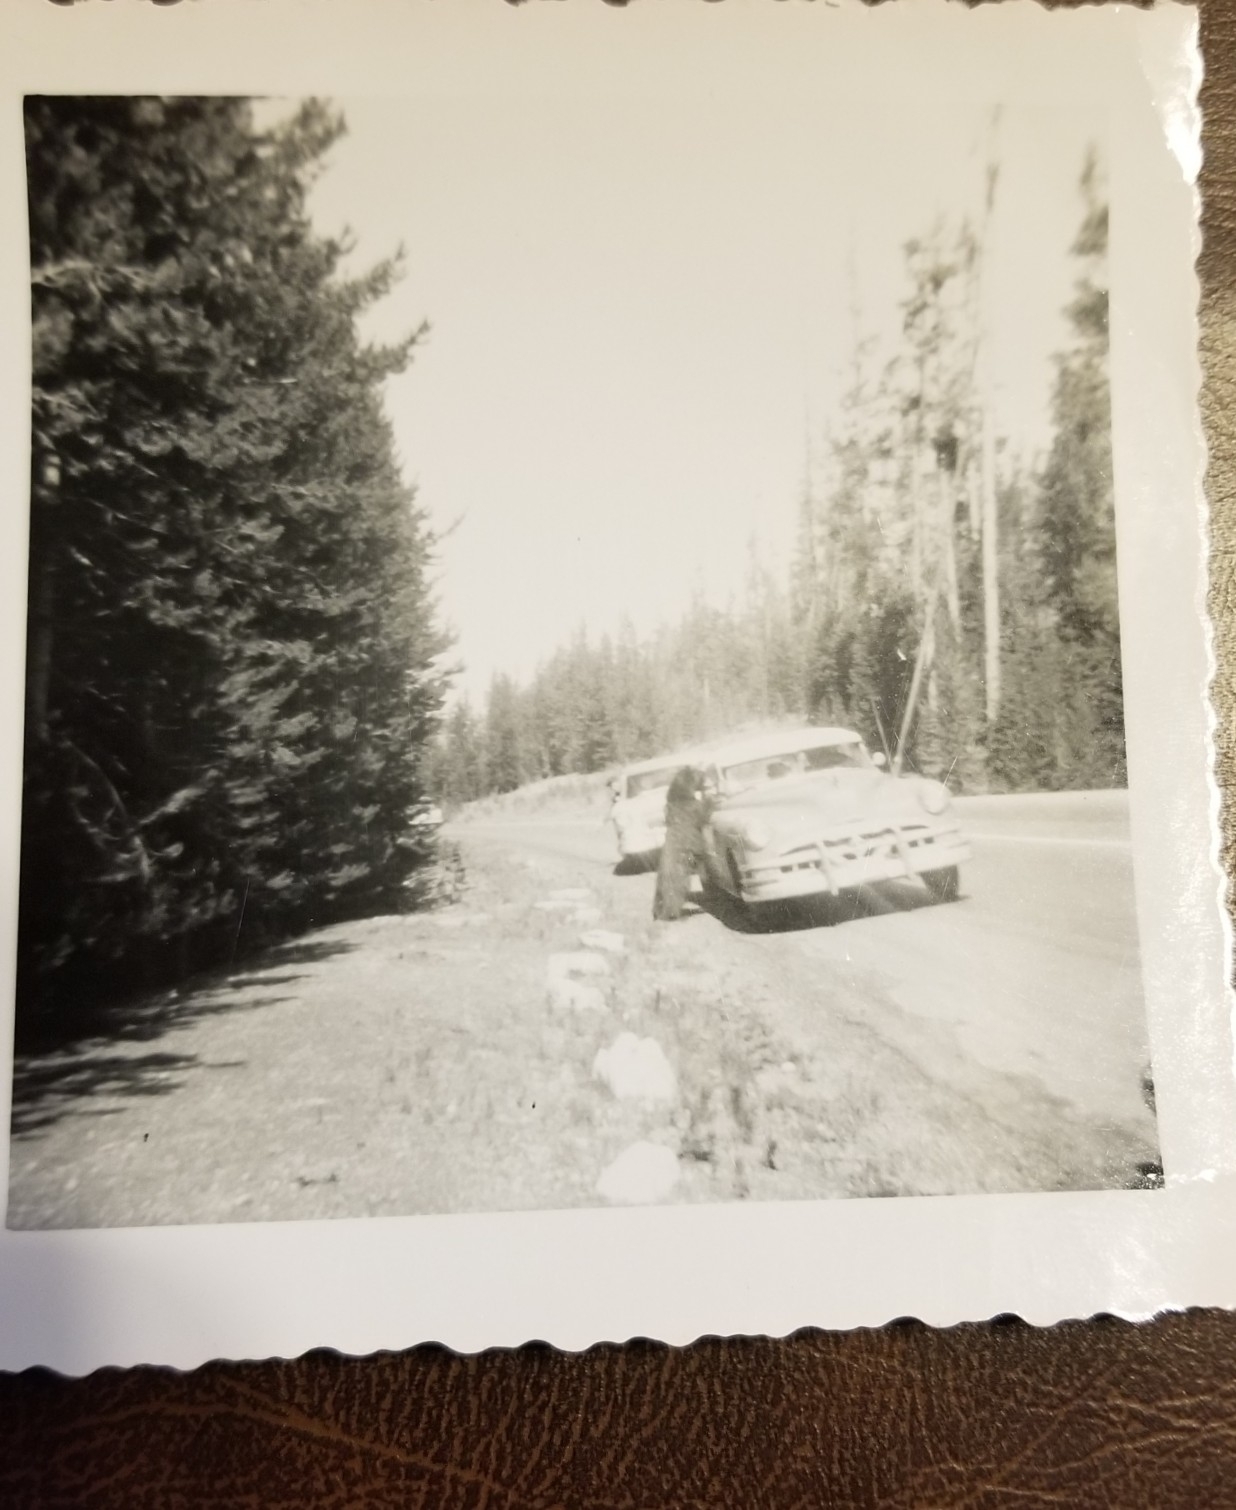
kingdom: Animalia
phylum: Chordata
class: Mammalia
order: Carnivora
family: Ursidae
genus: Ursus
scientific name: Ursus americanus
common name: American black bear
